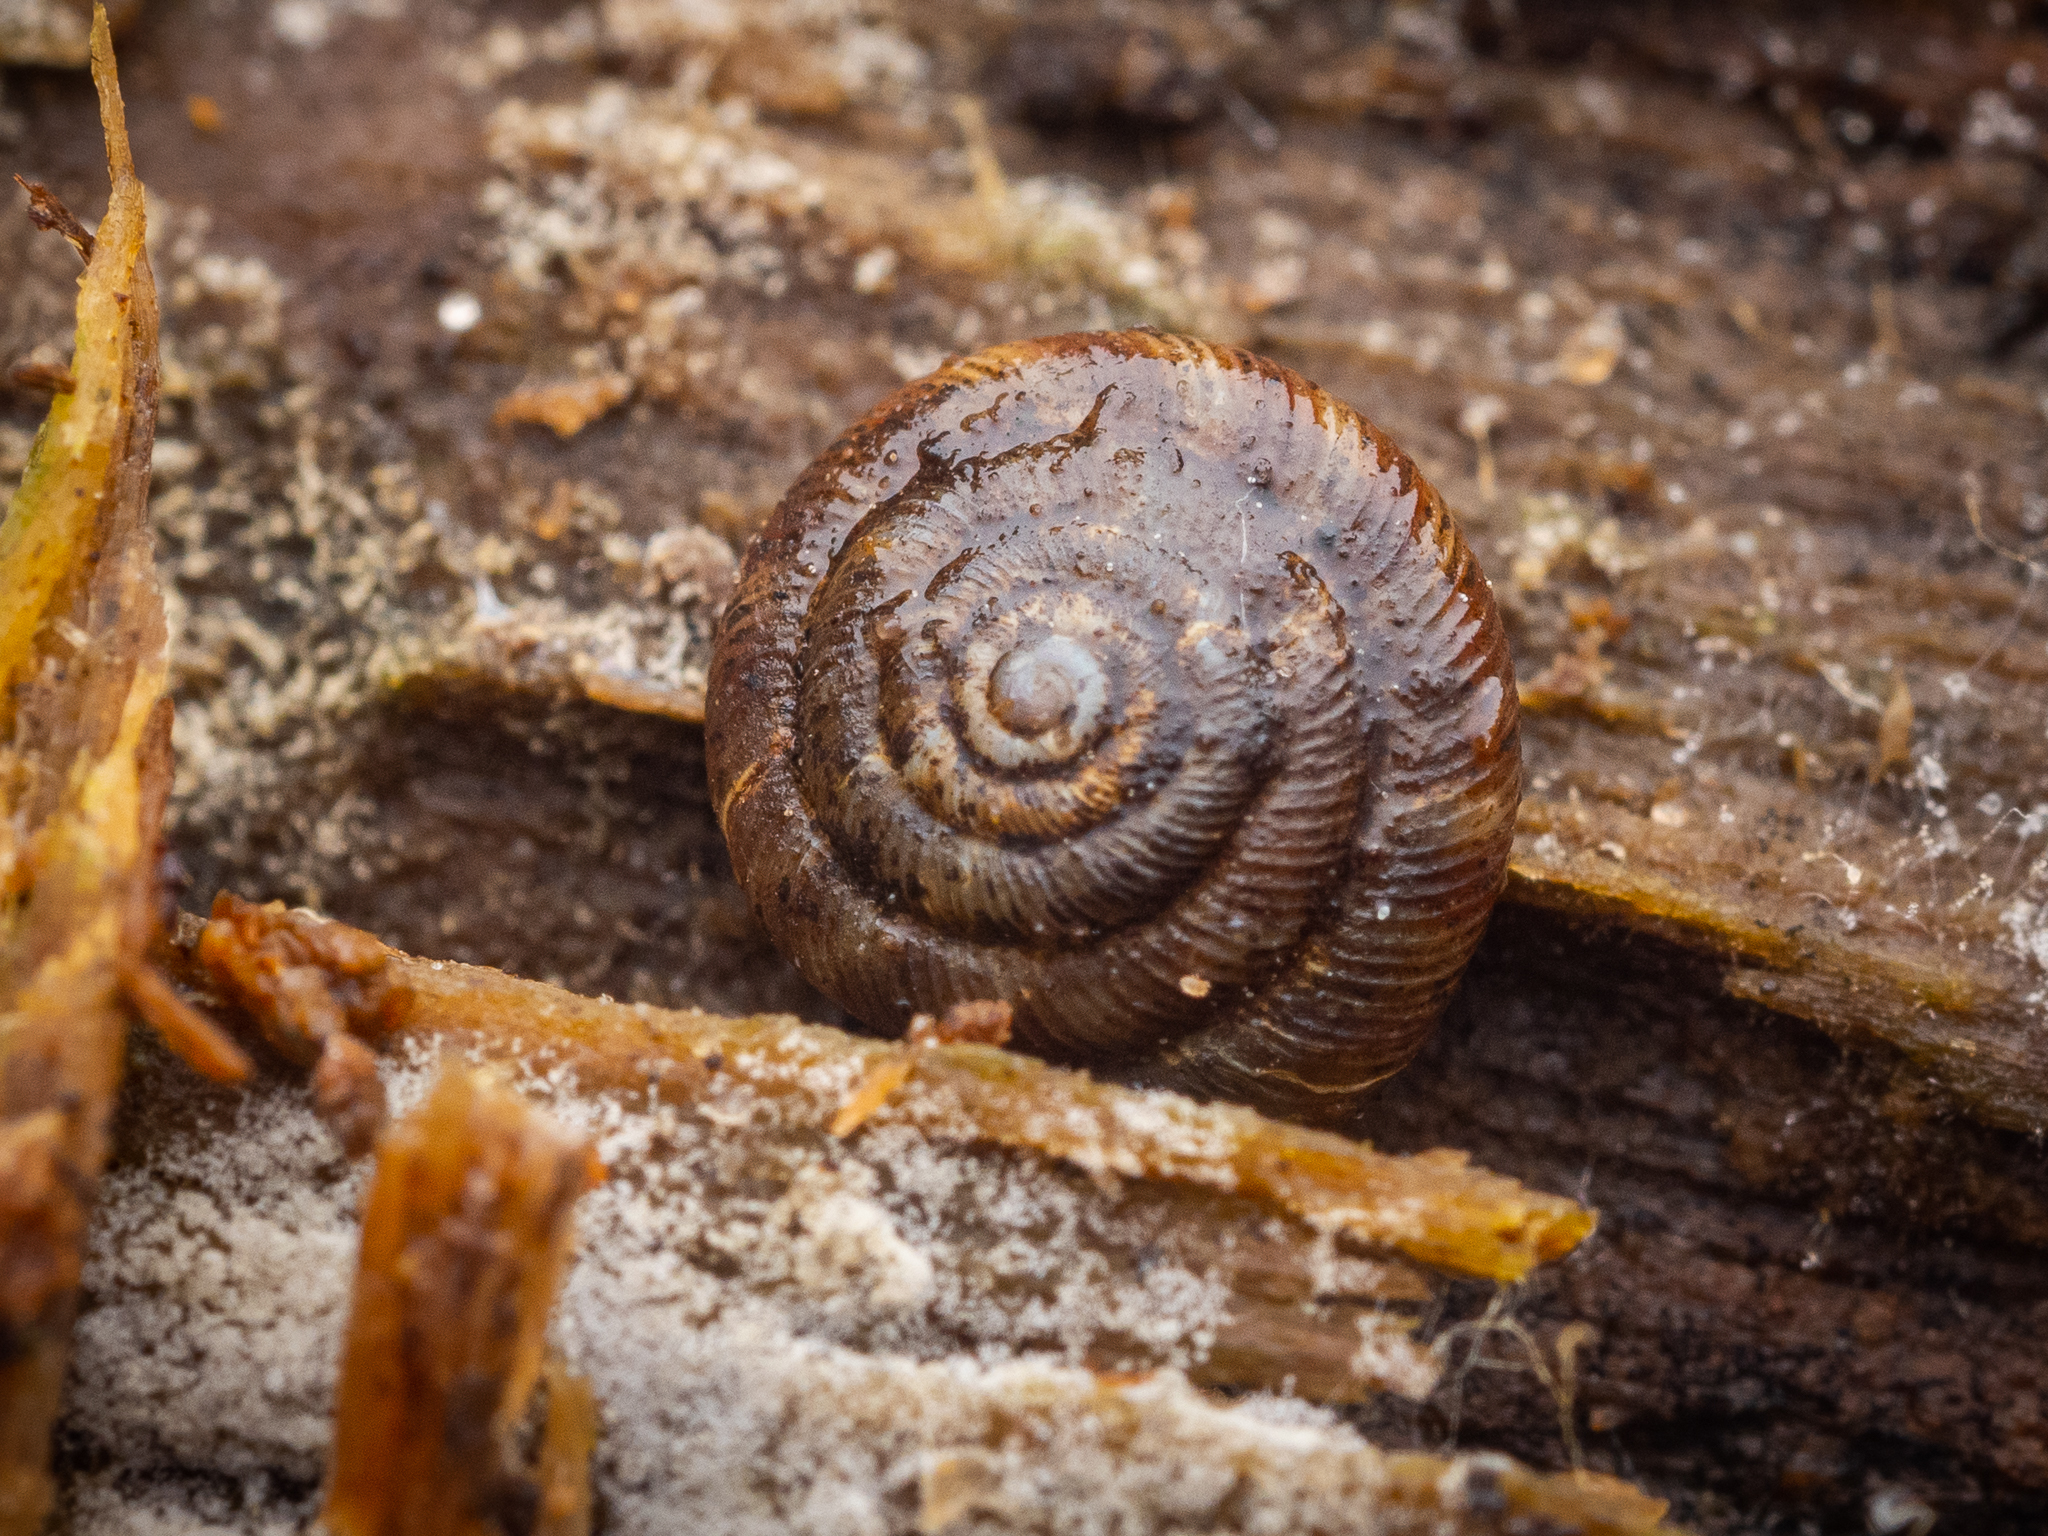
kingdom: Animalia
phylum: Mollusca
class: Gastropoda
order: Stylommatophora
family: Discidae
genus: Discus
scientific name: Discus rotundatus
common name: Rounded snail
